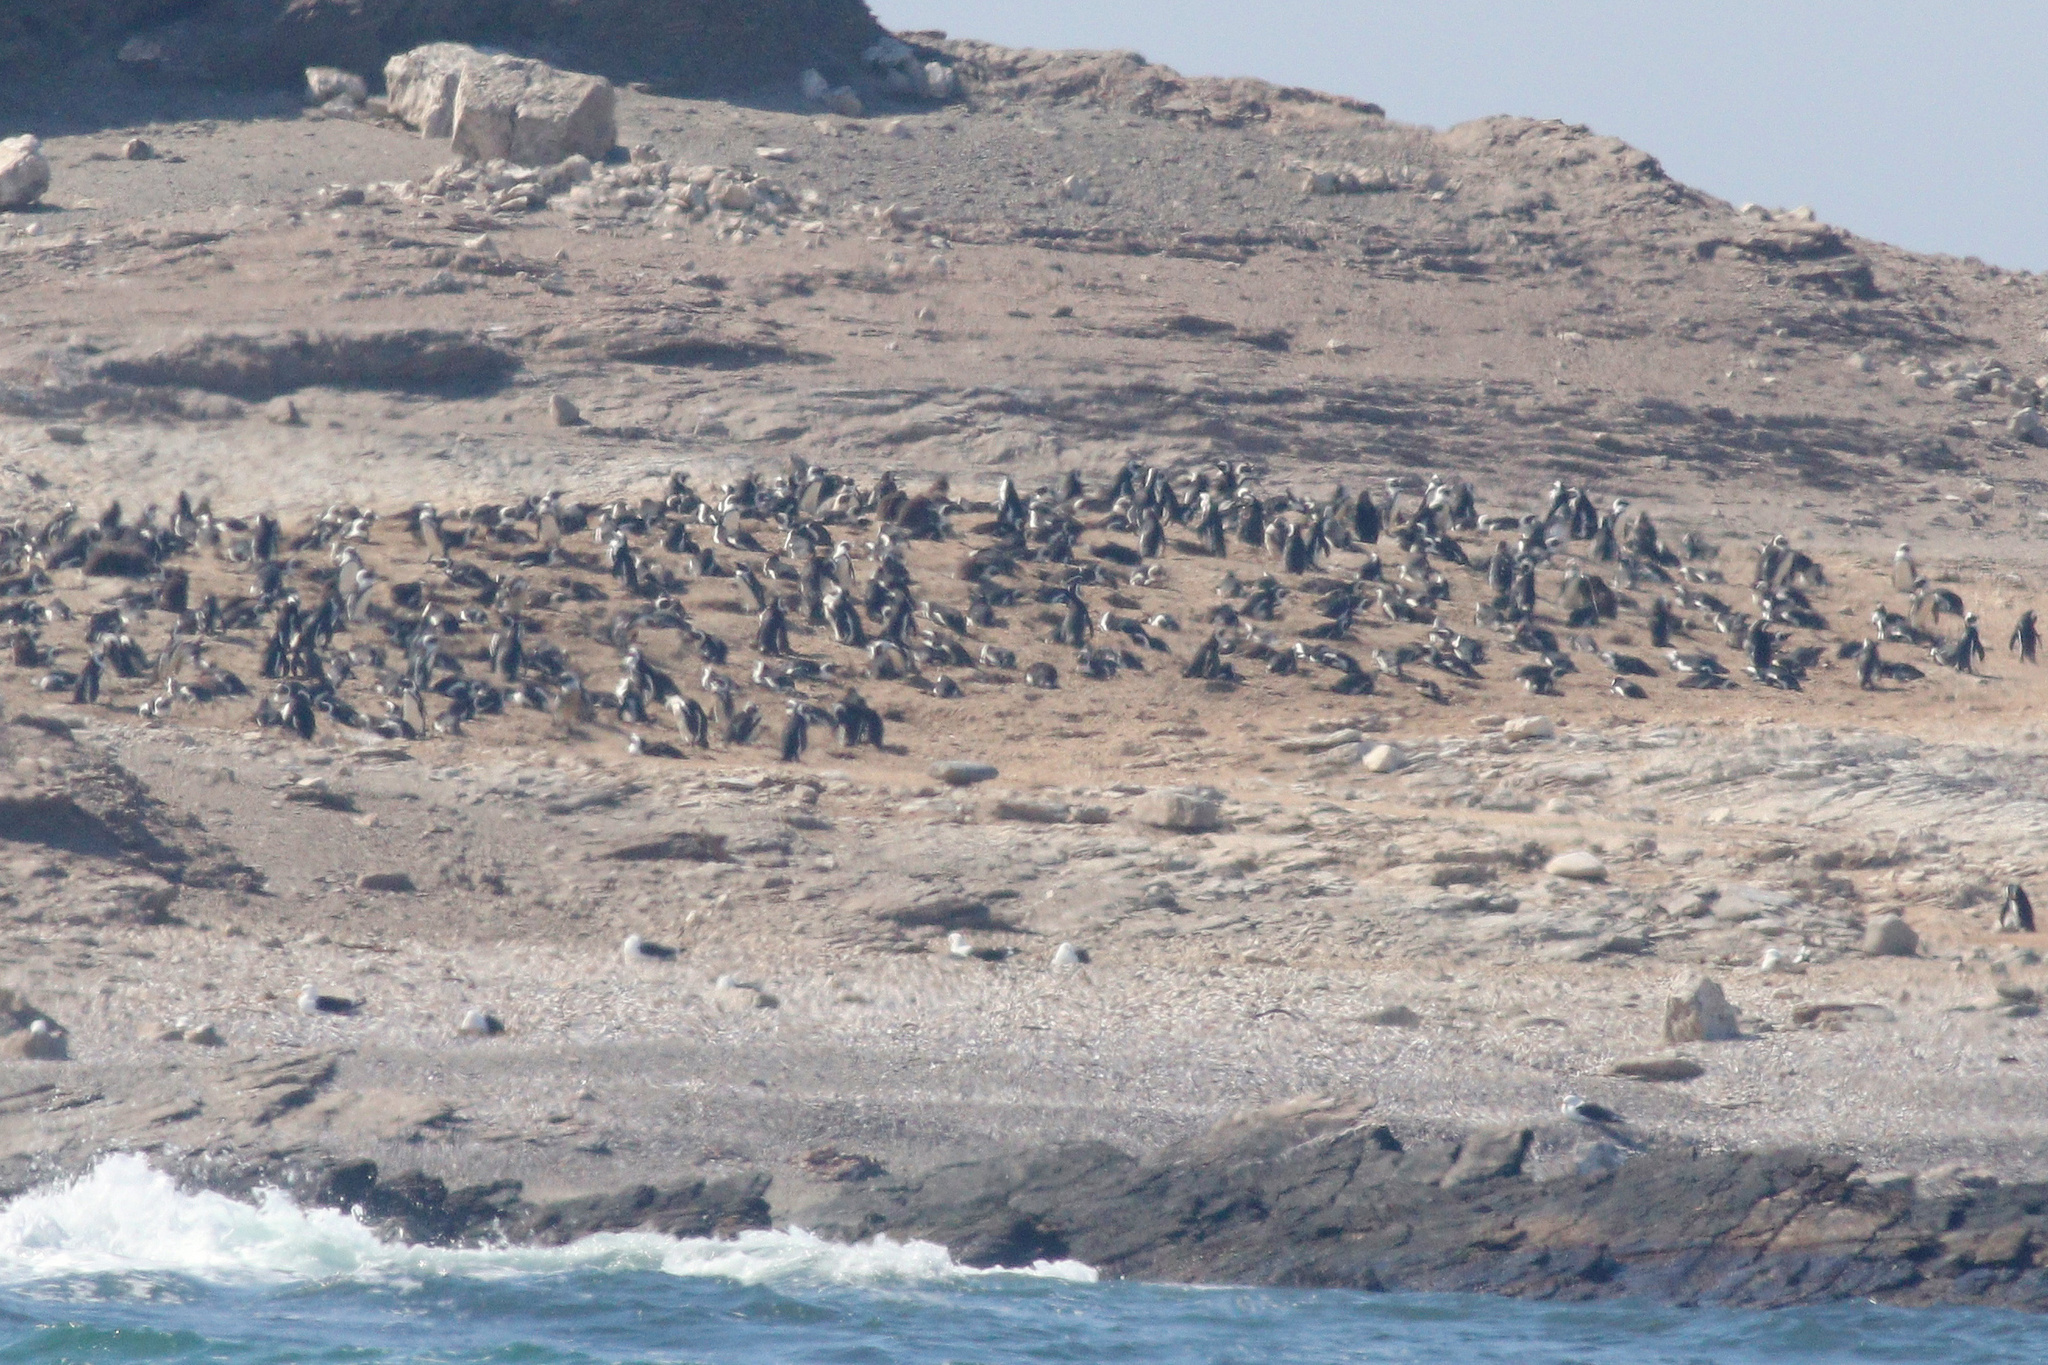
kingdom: Animalia
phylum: Chordata
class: Aves
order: Sphenisciformes
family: Spheniscidae
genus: Spheniscus
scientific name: Spheniscus demersus
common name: African penguin
